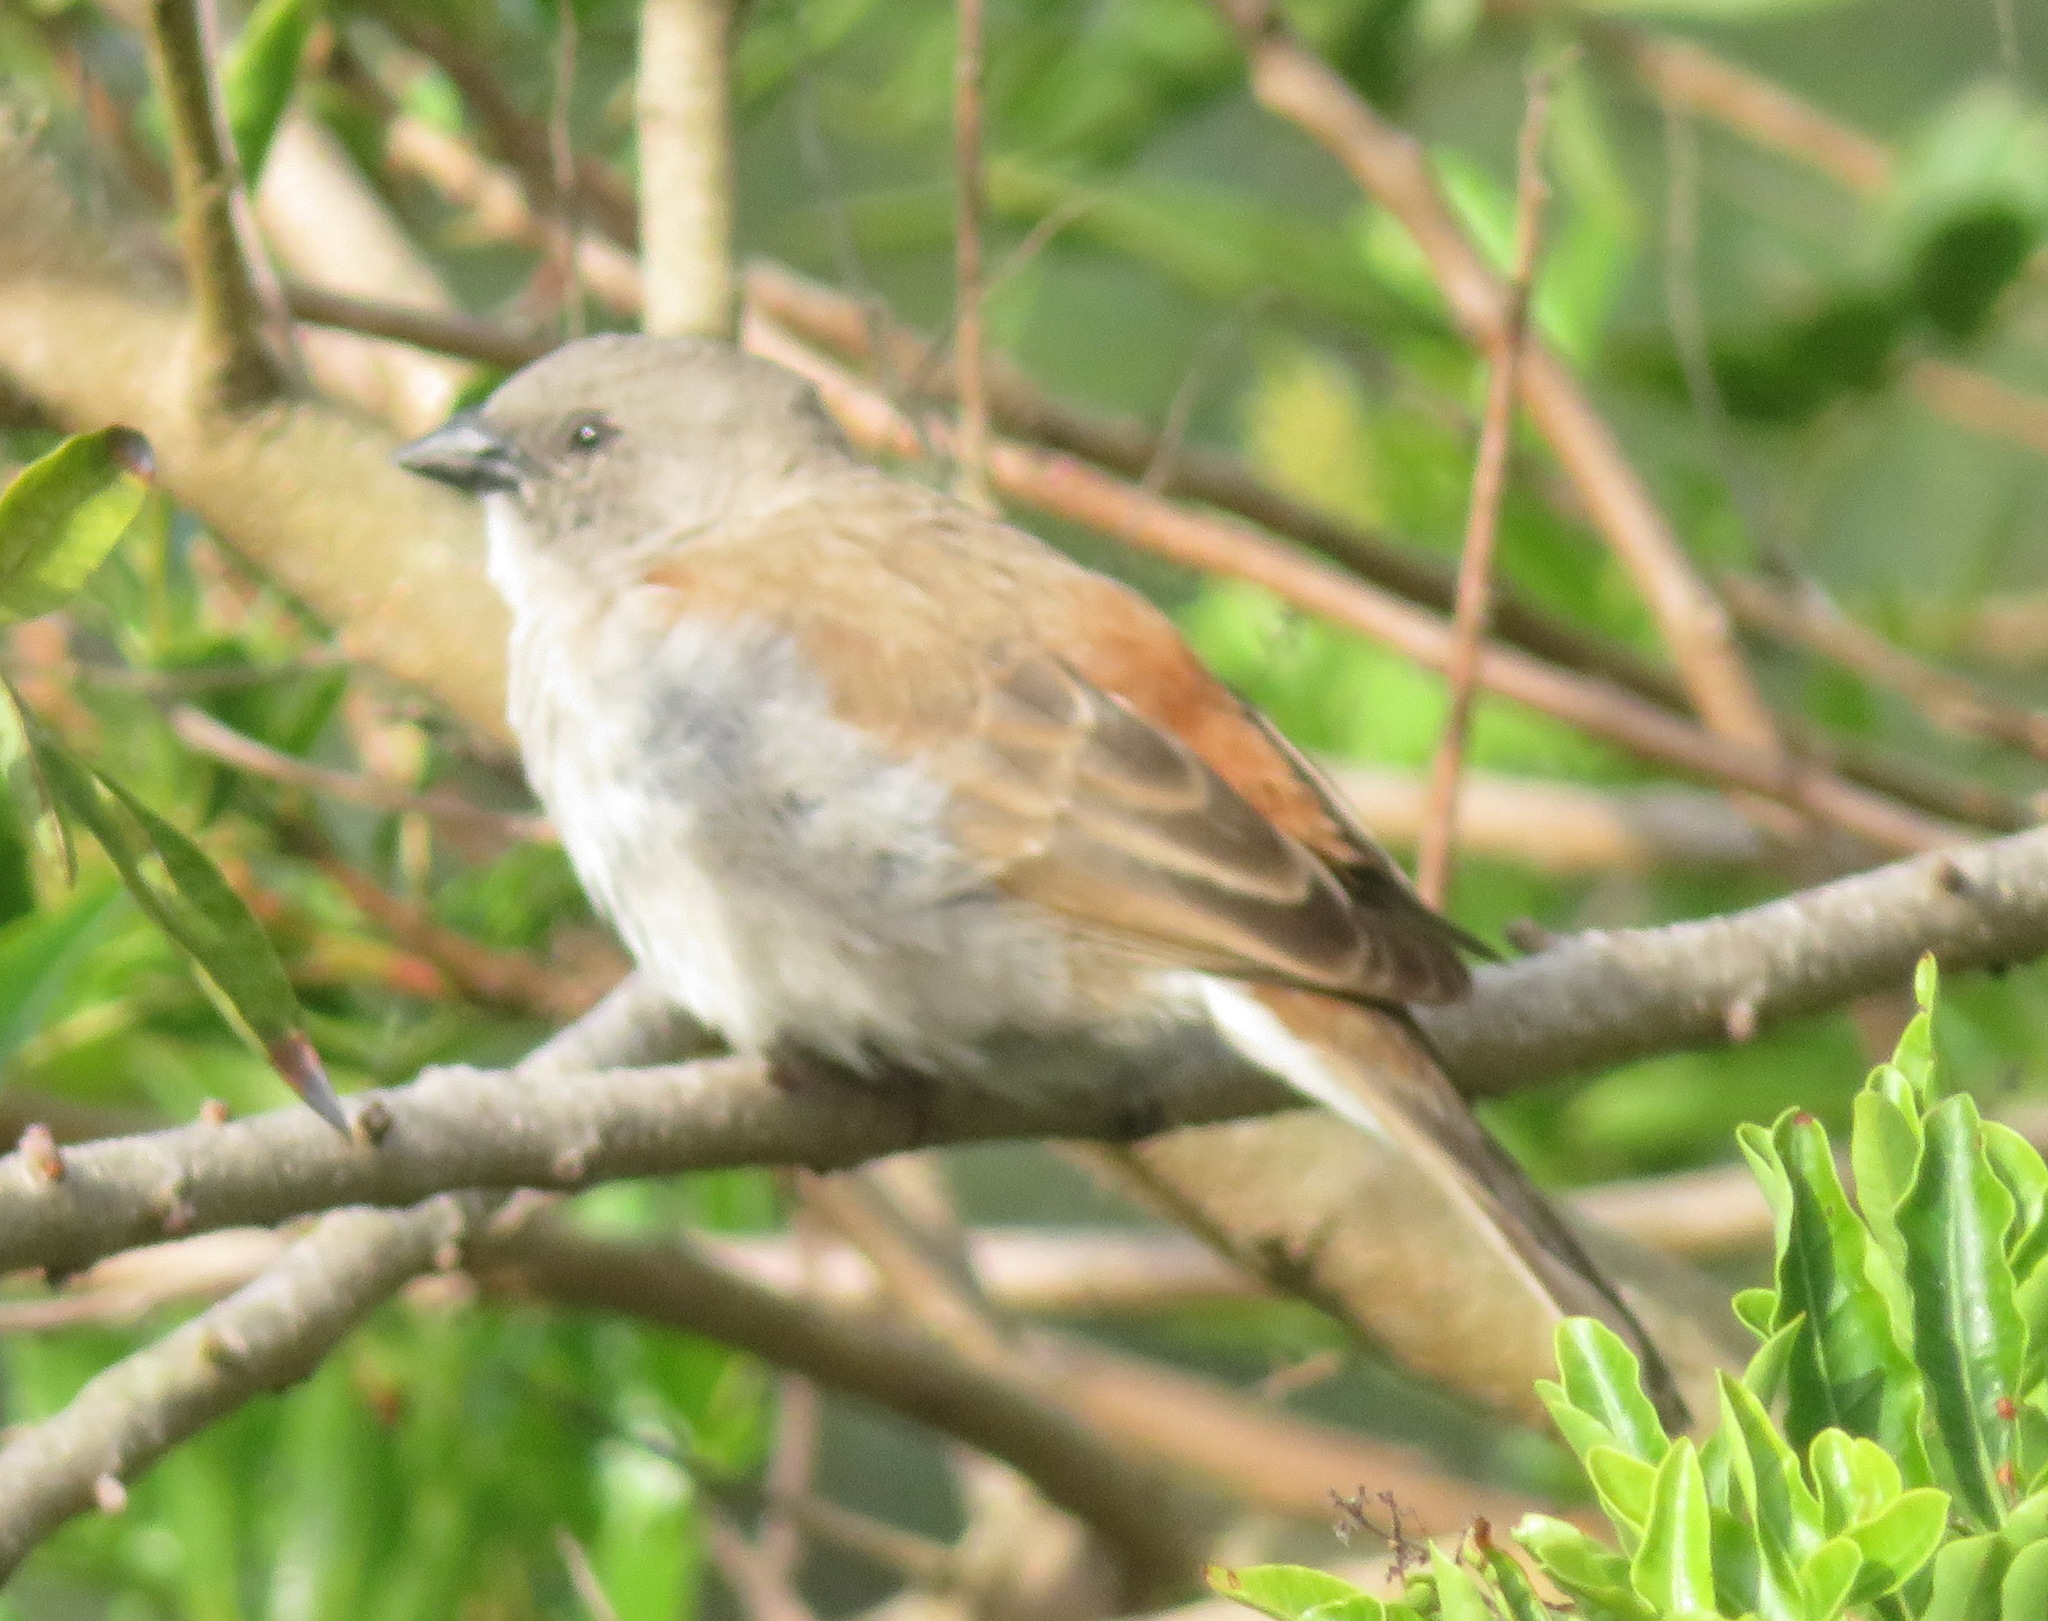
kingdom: Animalia
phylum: Chordata
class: Aves
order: Passeriformes
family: Passeridae
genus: Passer
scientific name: Passer diffusus
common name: Southern grey-headed sparrow
